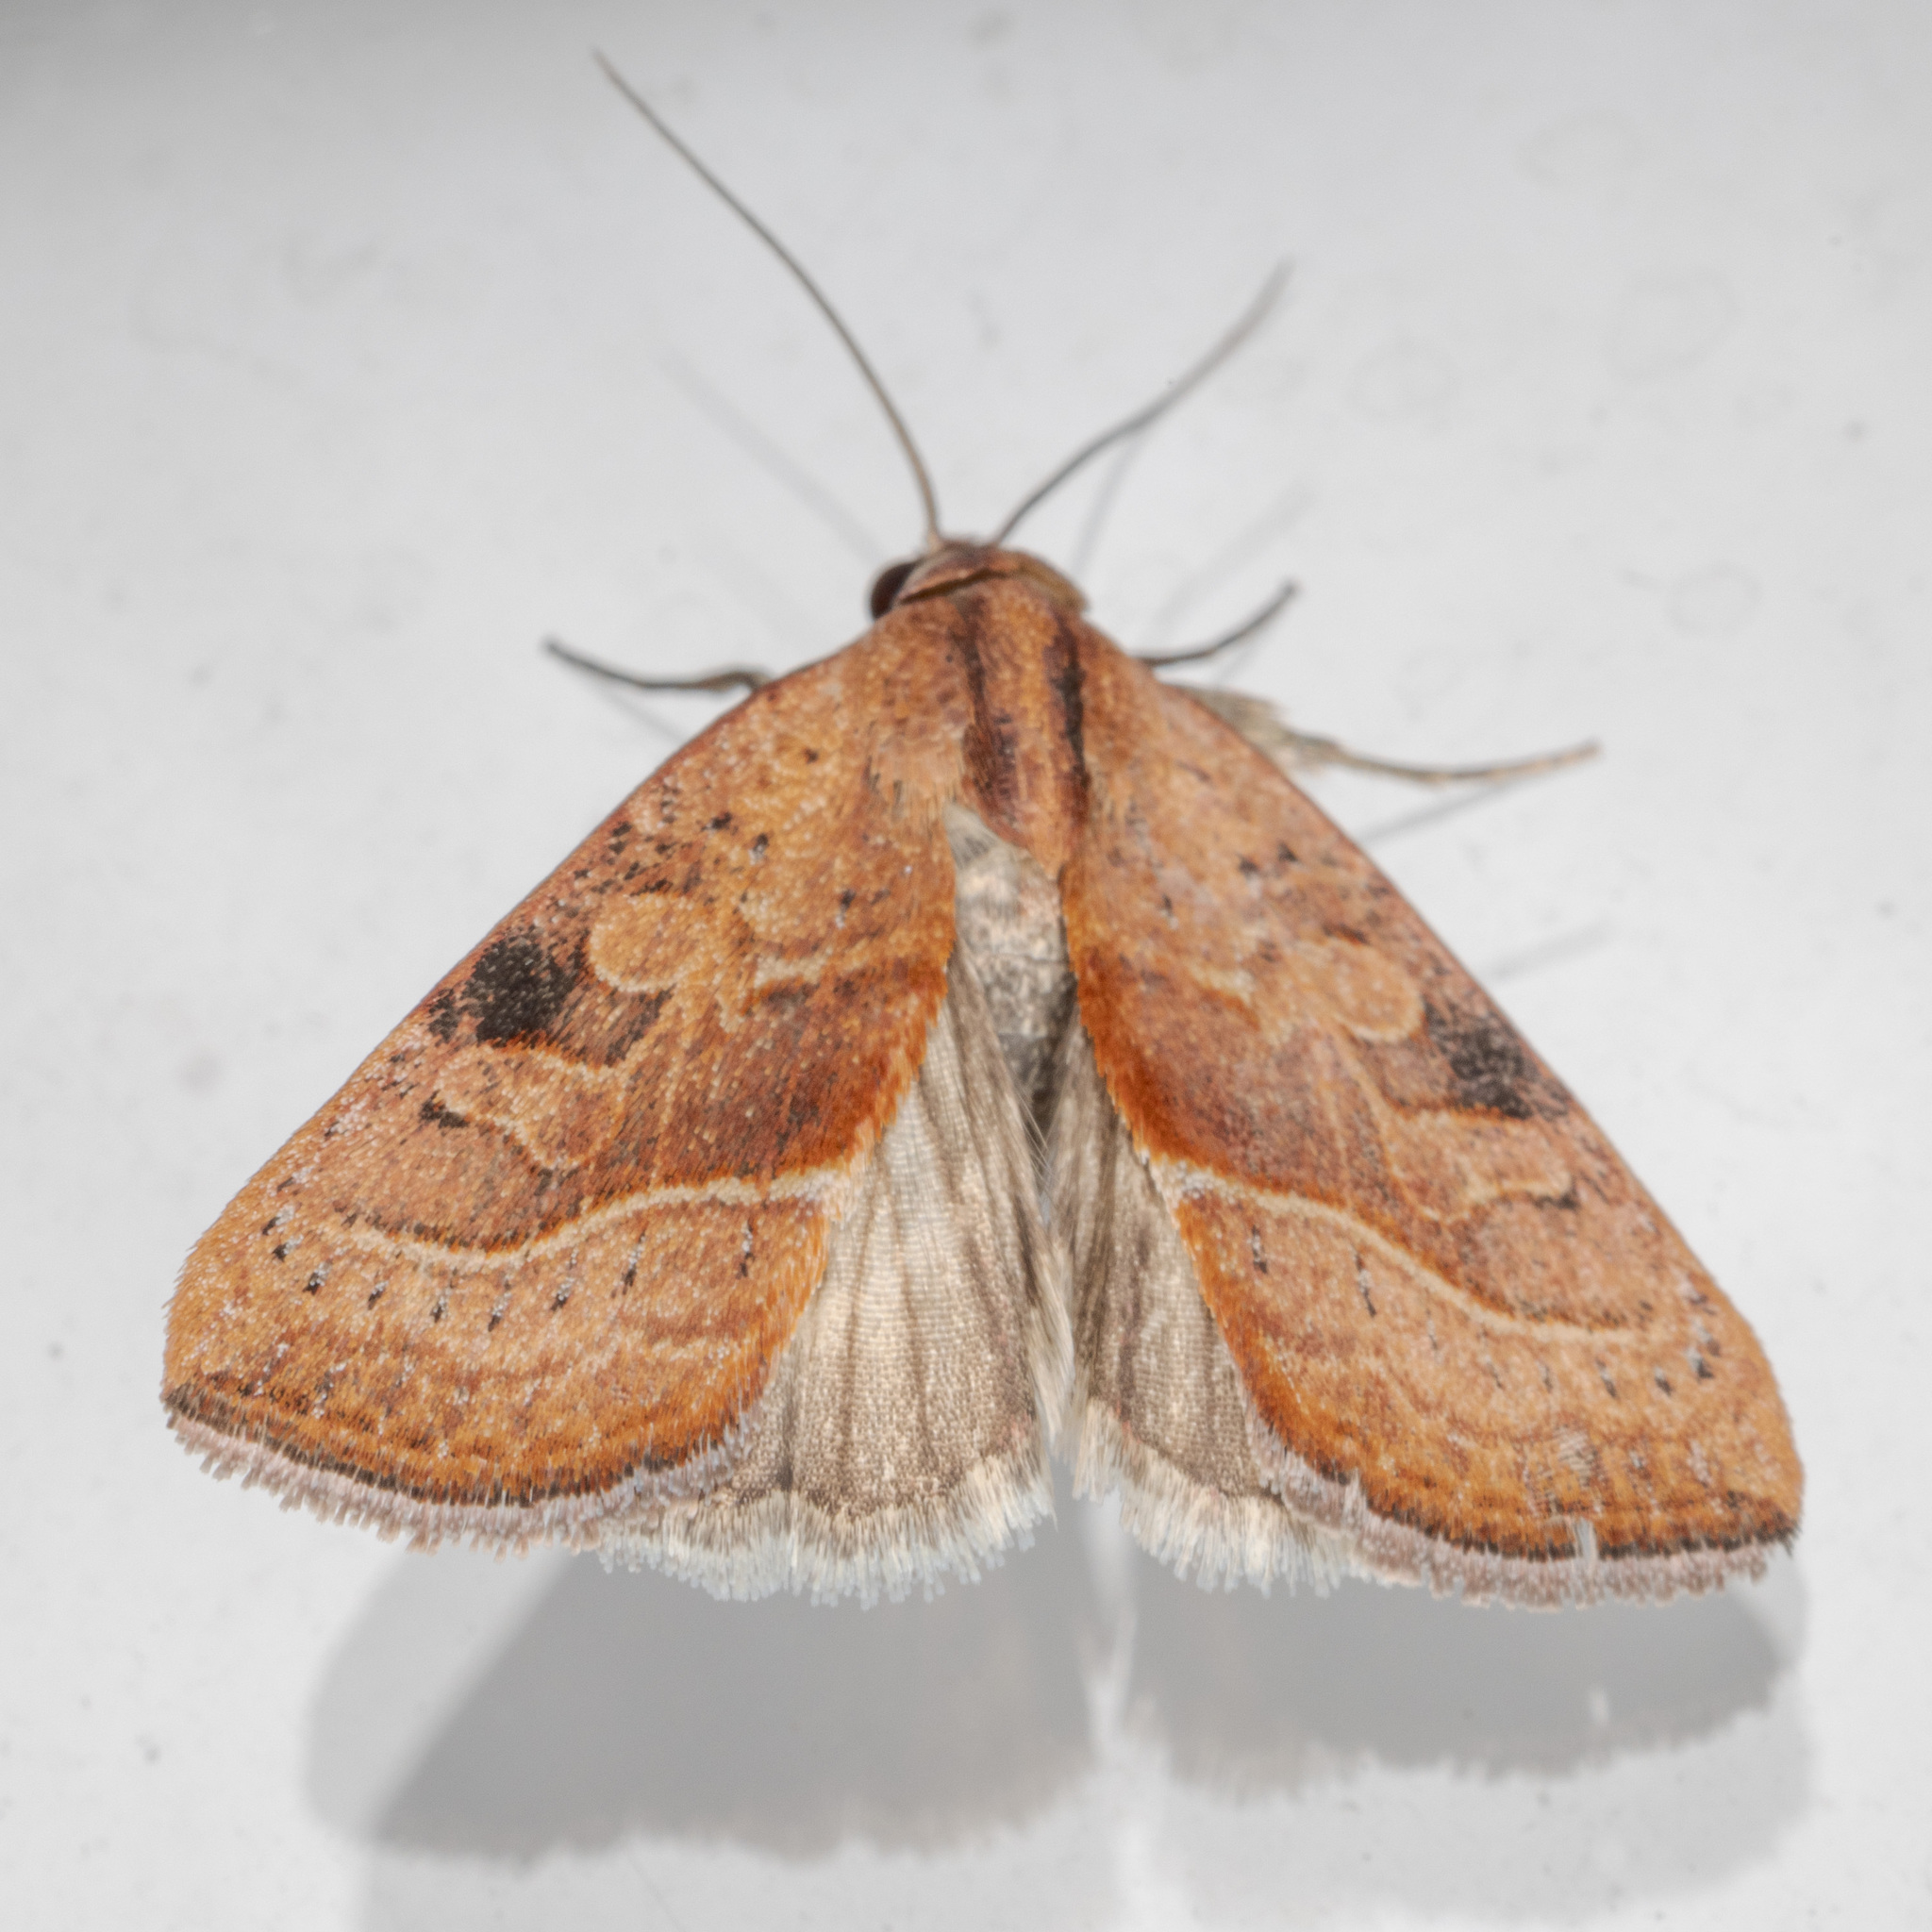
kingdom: Animalia
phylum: Arthropoda
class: Insecta
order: Lepidoptera
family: Noctuidae
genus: Galgula
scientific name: Galgula partita
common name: Wedgeling
